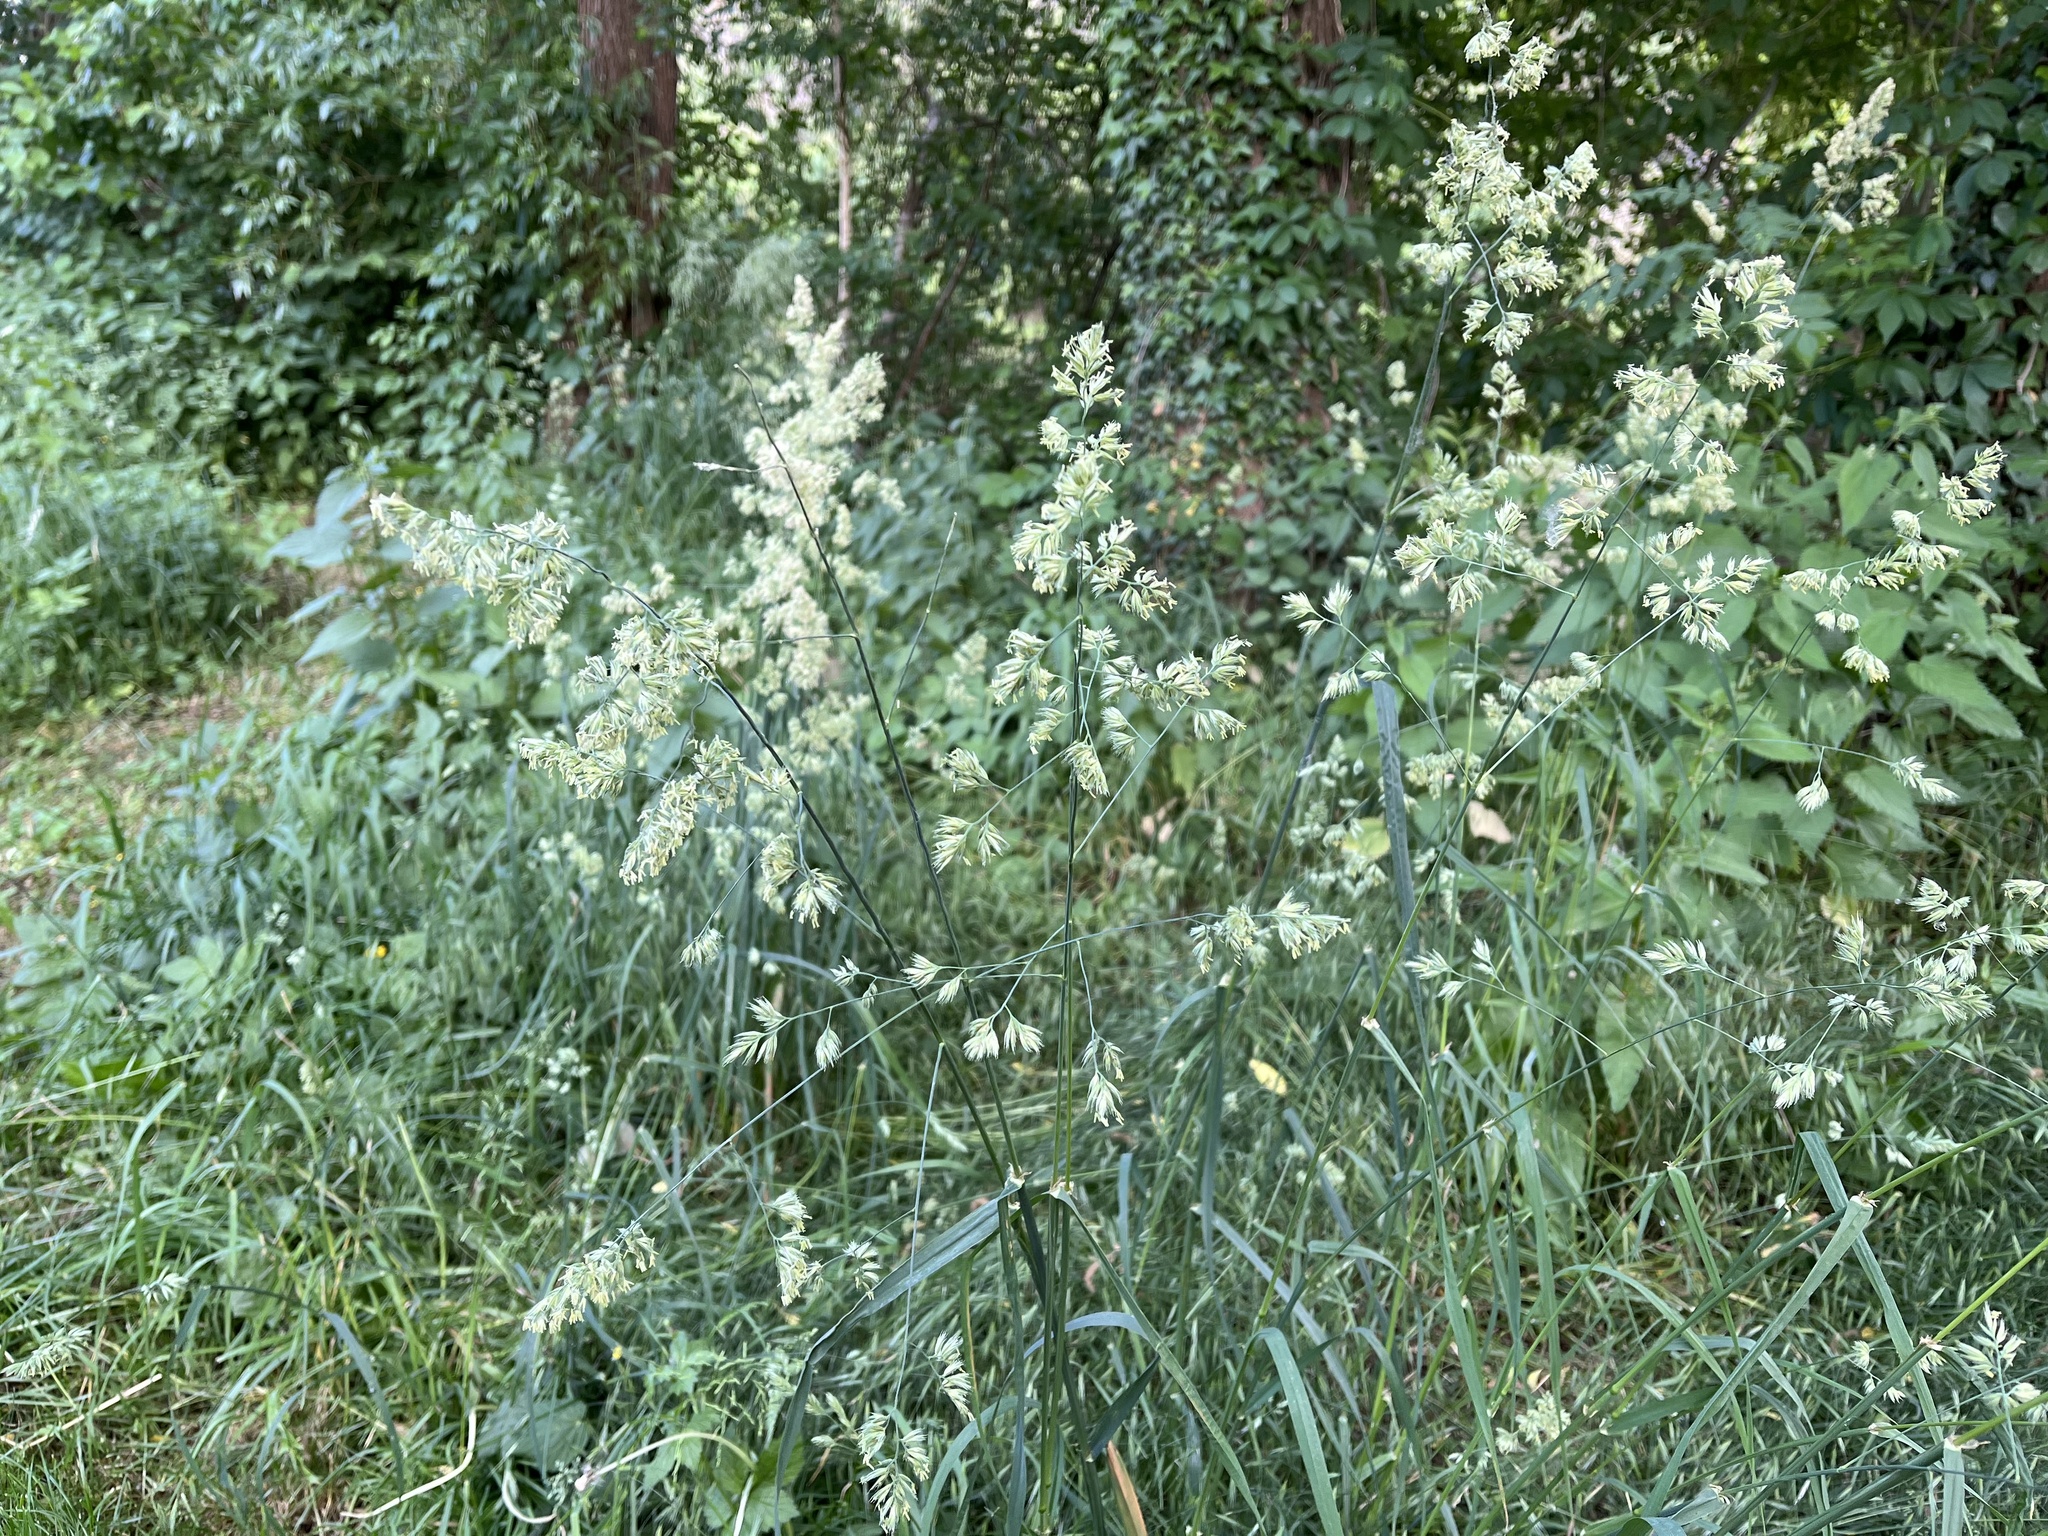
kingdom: Plantae
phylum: Tracheophyta
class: Liliopsida
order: Poales
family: Poaceae
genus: Dactylis
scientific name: Dactylis glomerata
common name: Orchardgrass
